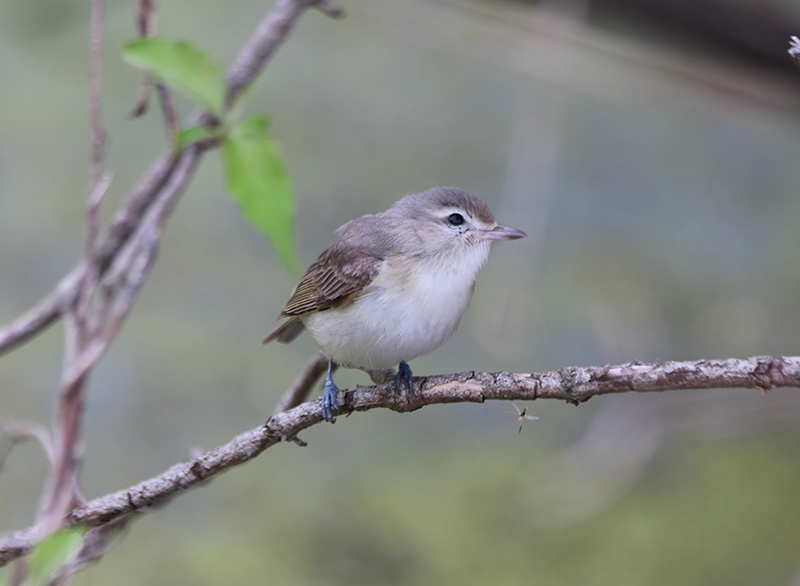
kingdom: Animalia
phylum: Chordata
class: Aves
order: Passeriformes
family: Vireonidae
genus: Vireo
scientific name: Vireo gilvus
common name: Warbling vireo
